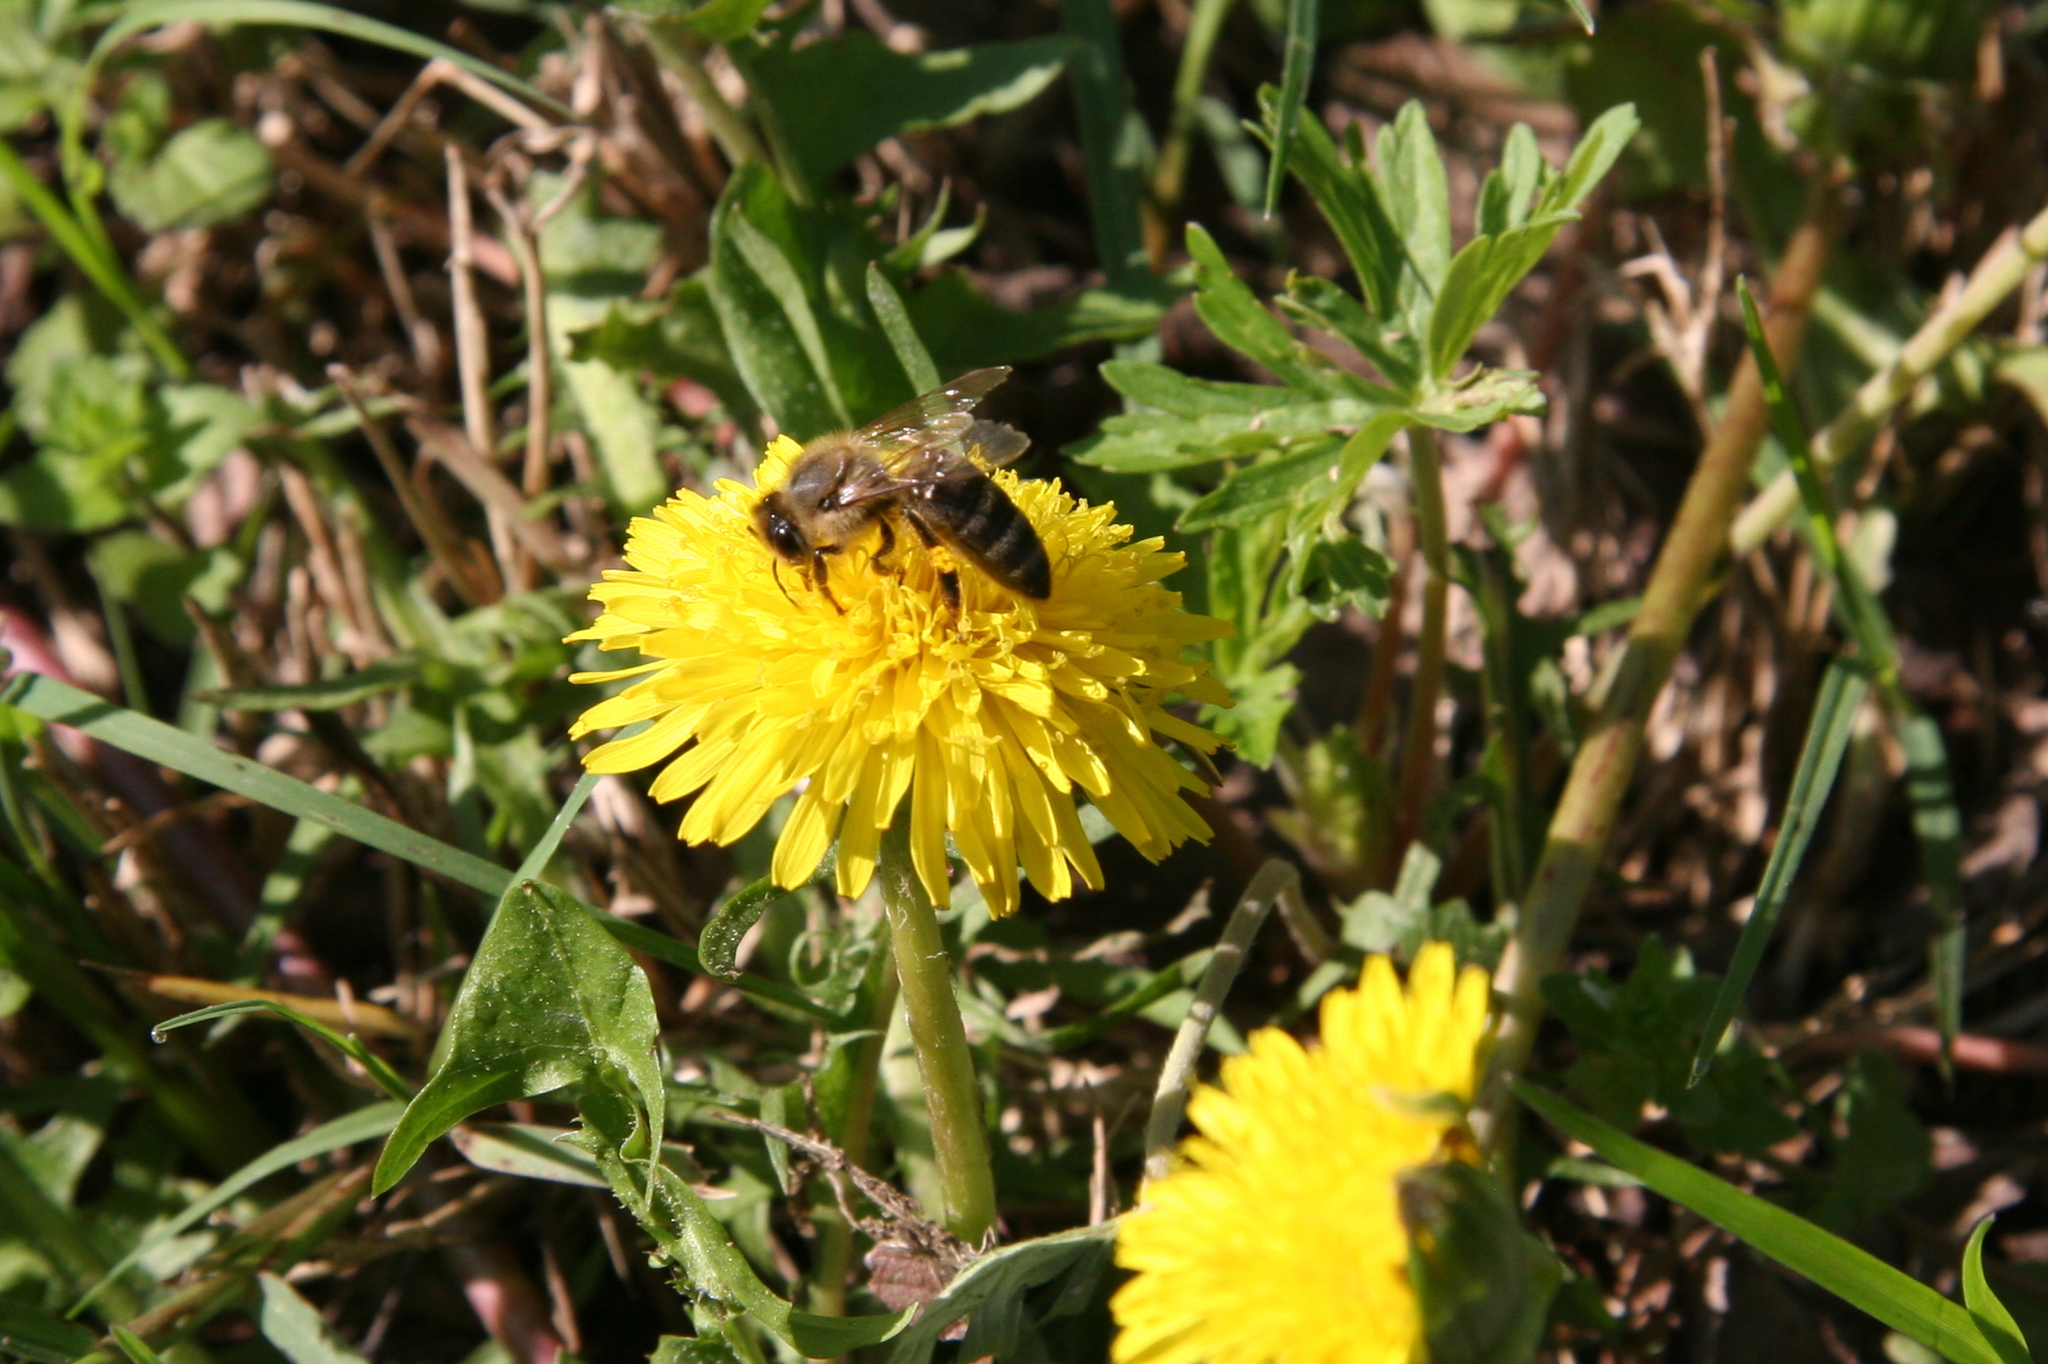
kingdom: Animalia
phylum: Arthropoda
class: Insecta
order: Hymenoptera
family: Apidae
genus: Apis
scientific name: Apis mellifera
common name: Honey bee
